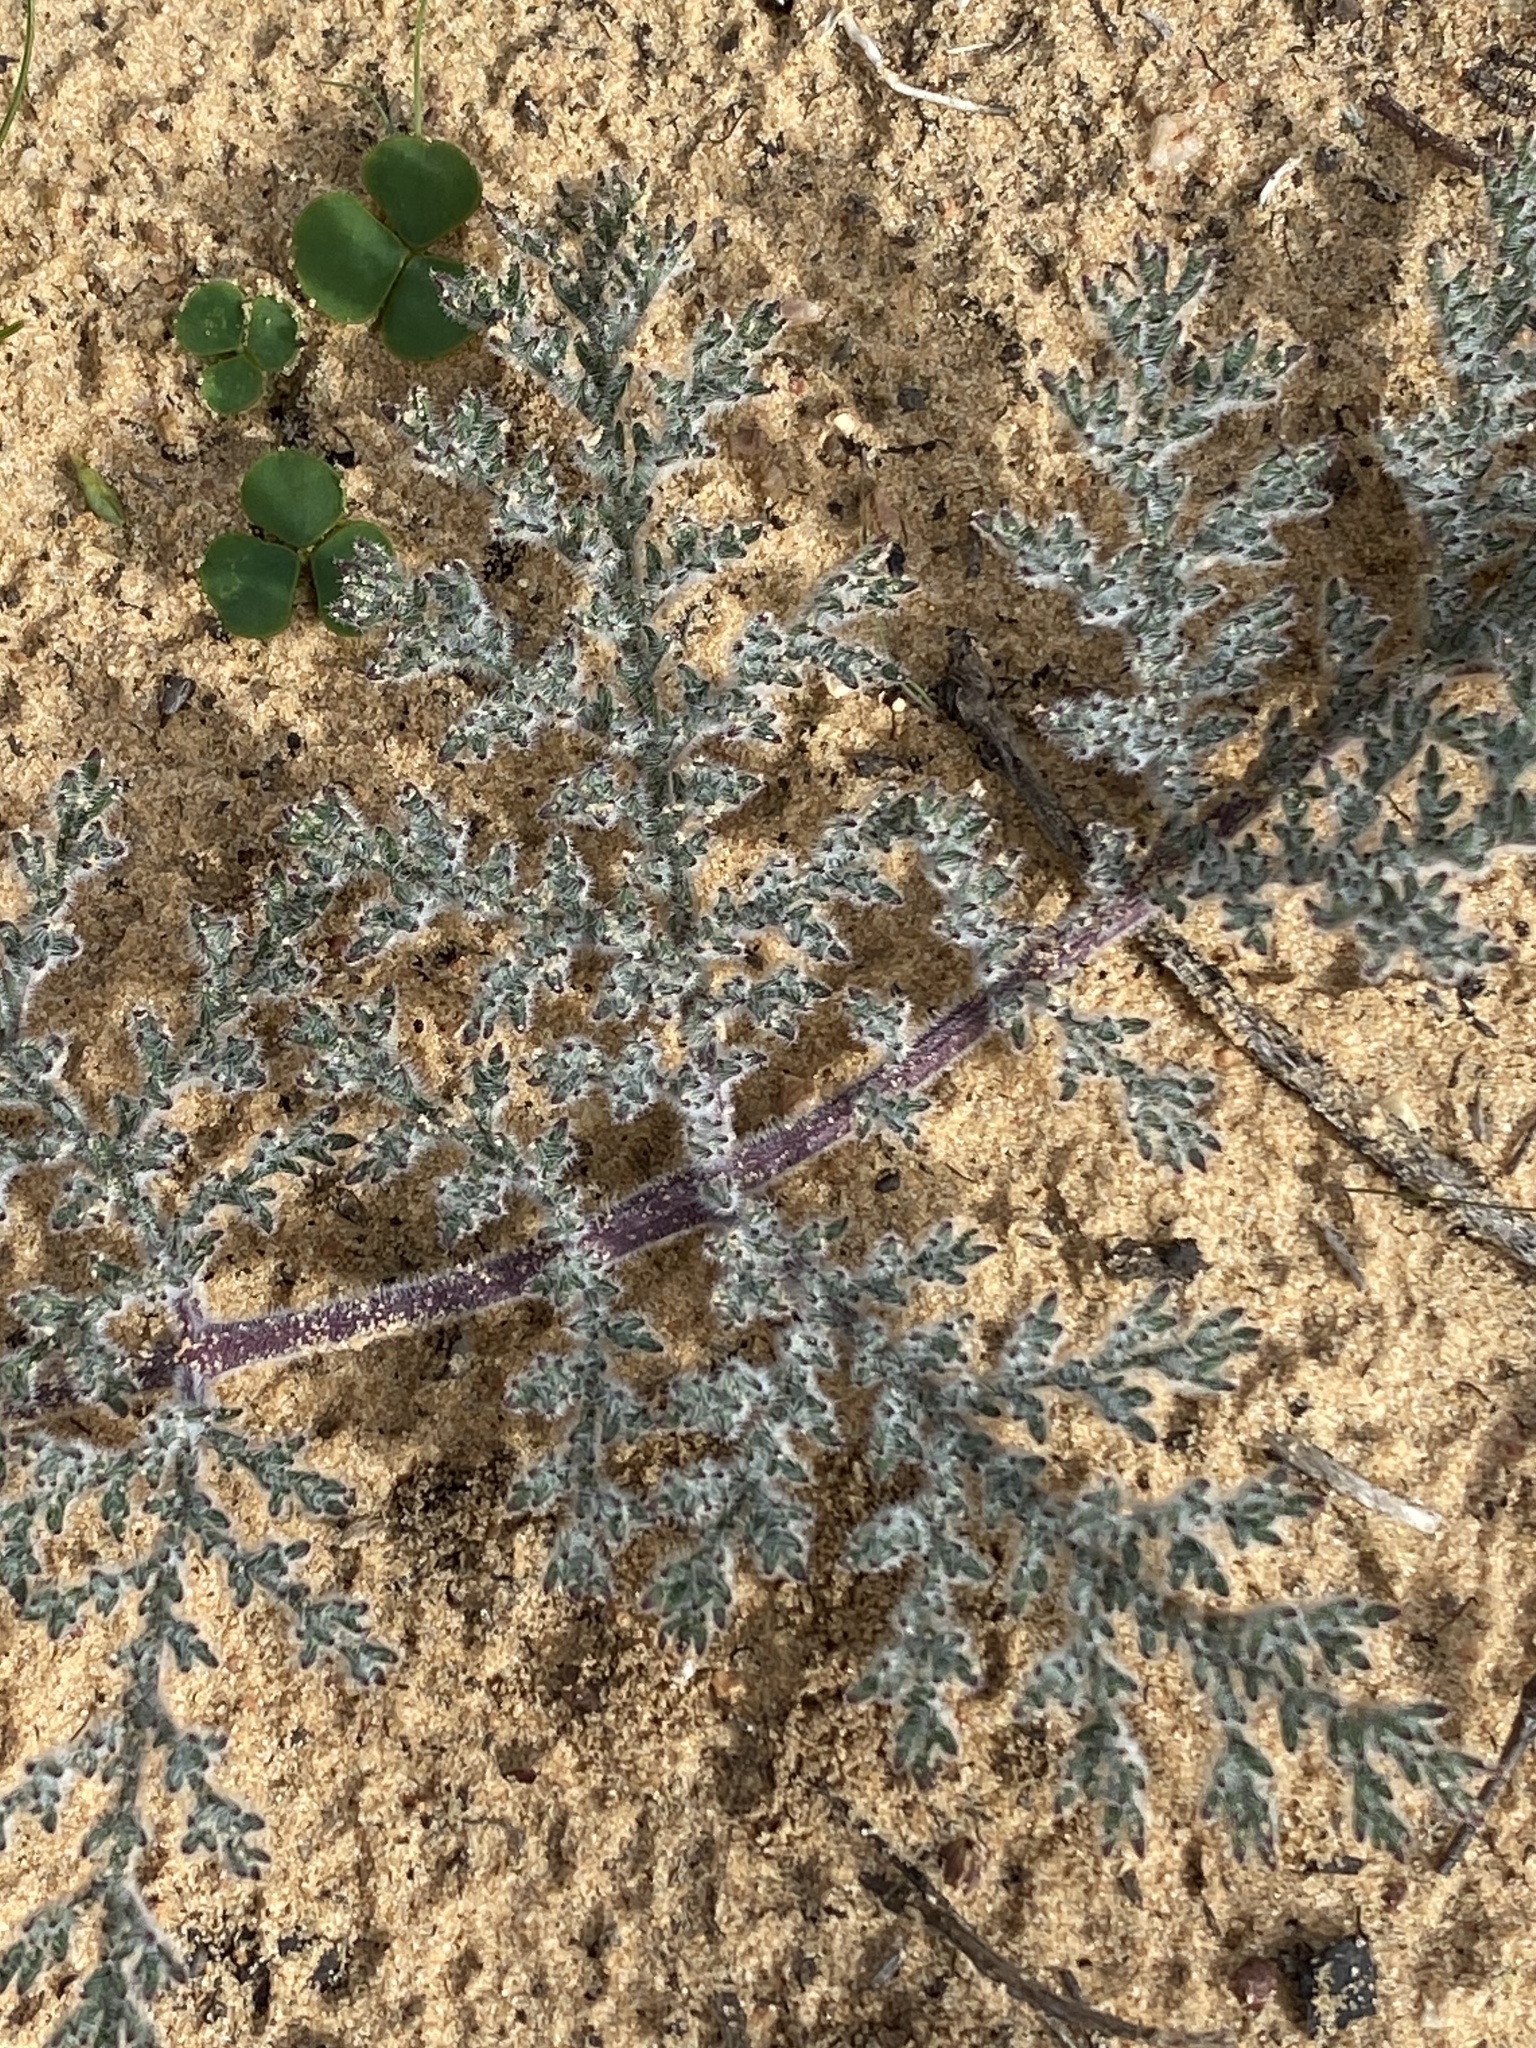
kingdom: Plantae
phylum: Tracheophyta
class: Magnoliopsida
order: Geraniales
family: Geraniaceae
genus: Pelargonium
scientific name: Pelargonium triste
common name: Night-scent pelargonium
